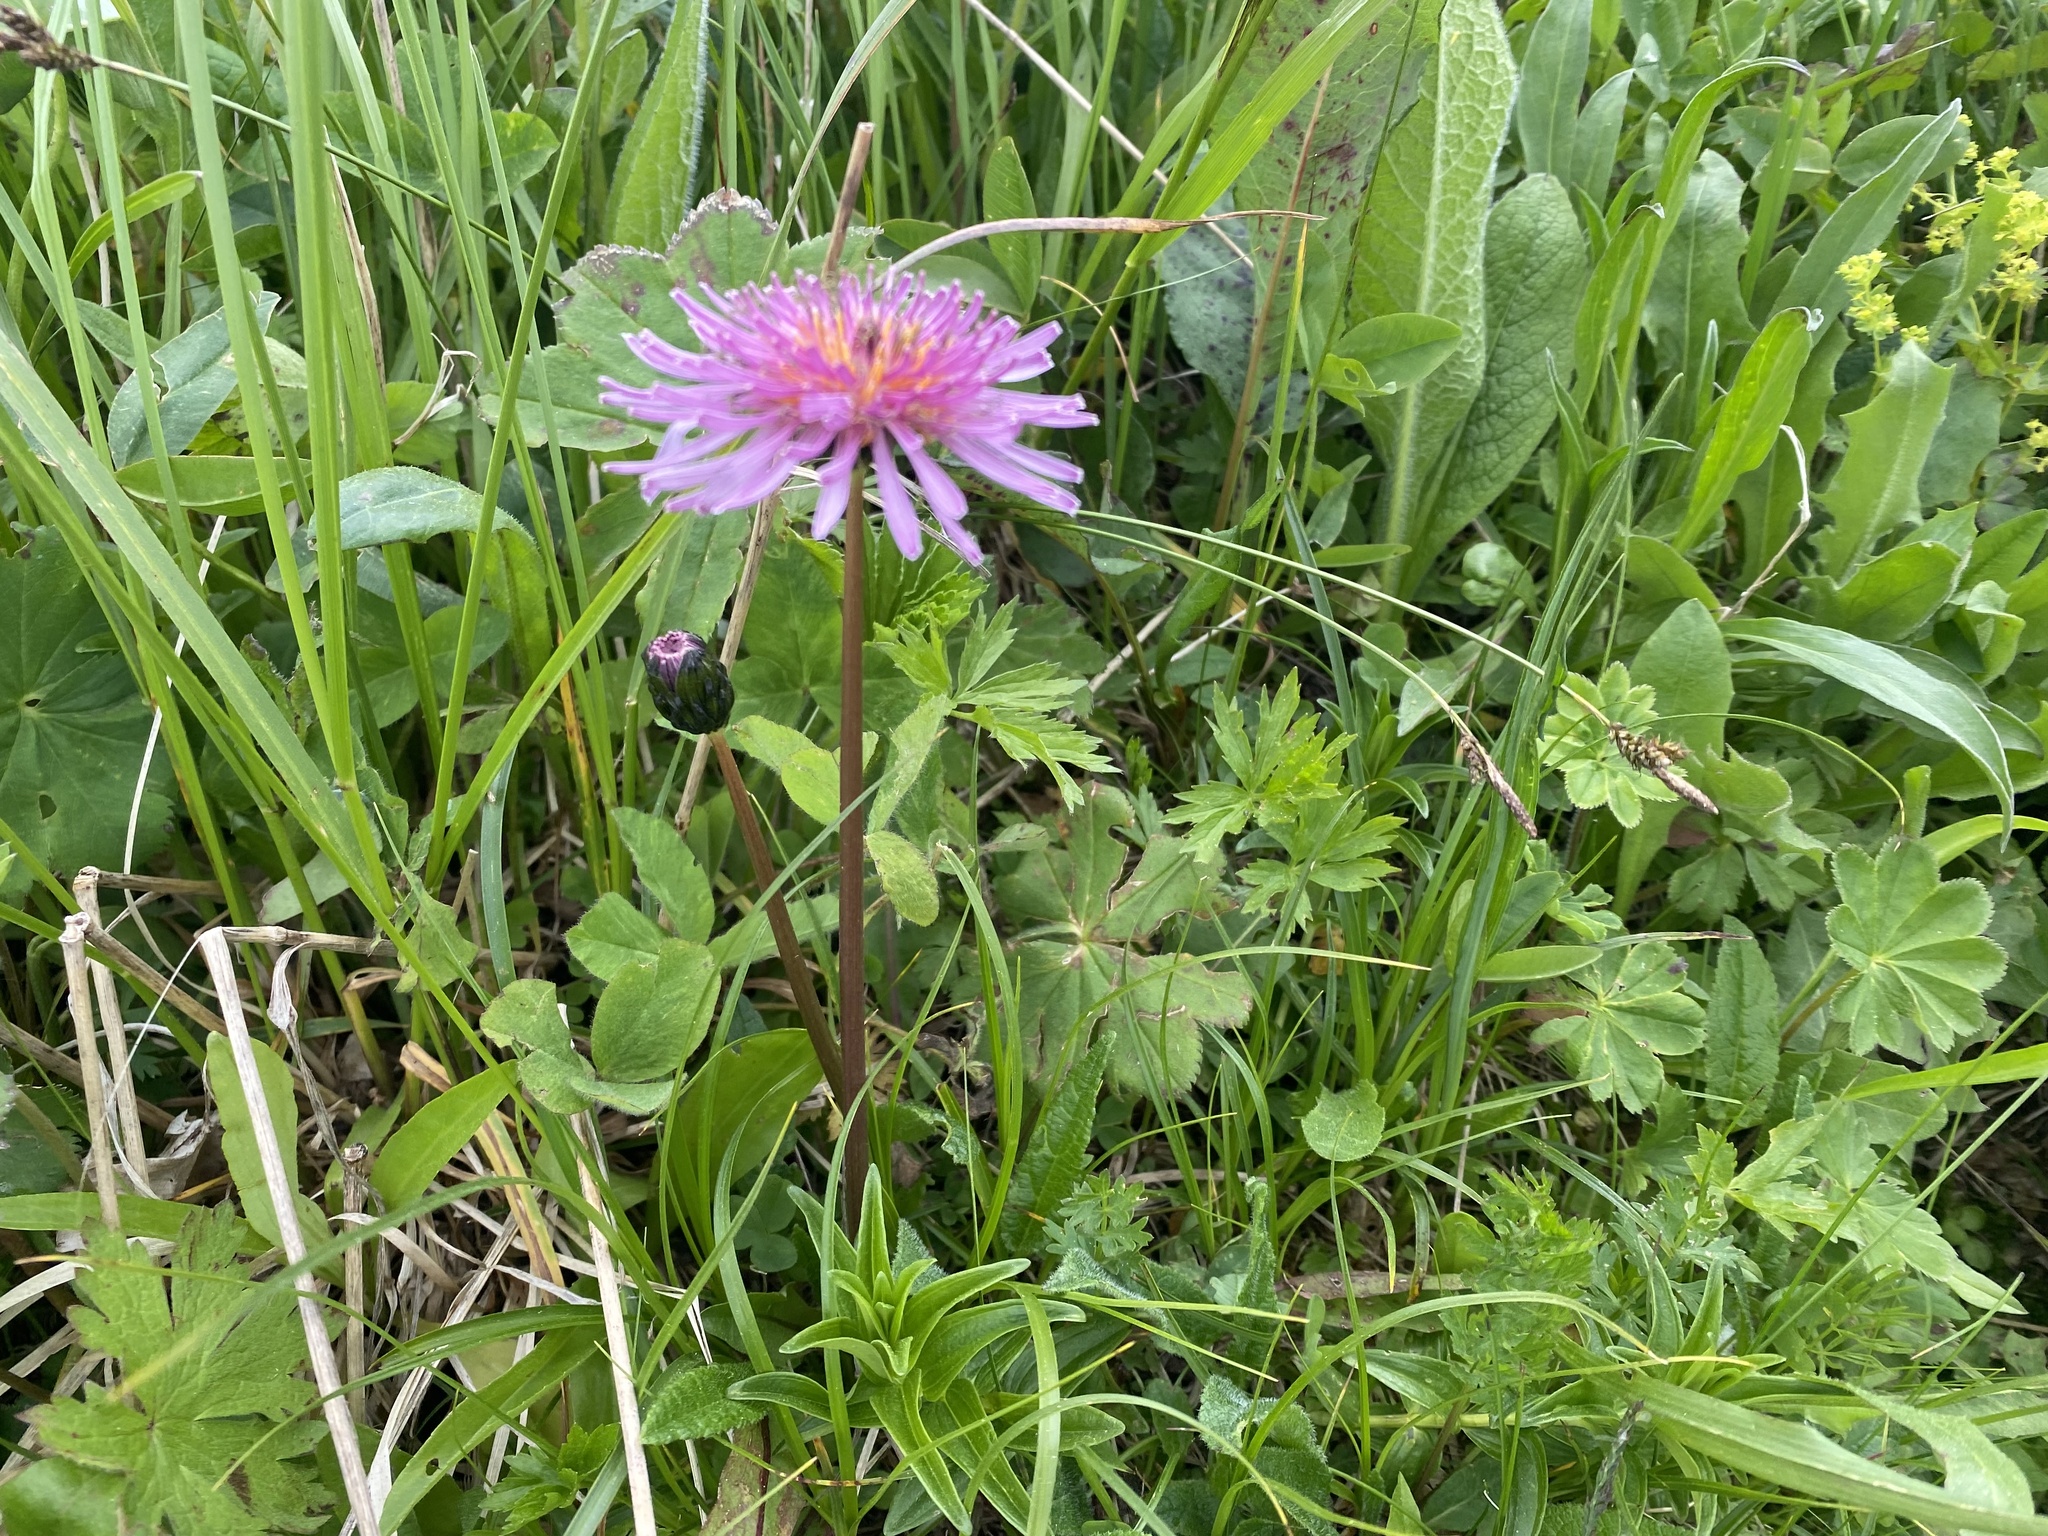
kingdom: Plantae
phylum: Tracheophyta
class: Magnoliopsida
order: Asterales
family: Asteraceae
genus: Taraxacum
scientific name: Taraxacum porphyranthum
